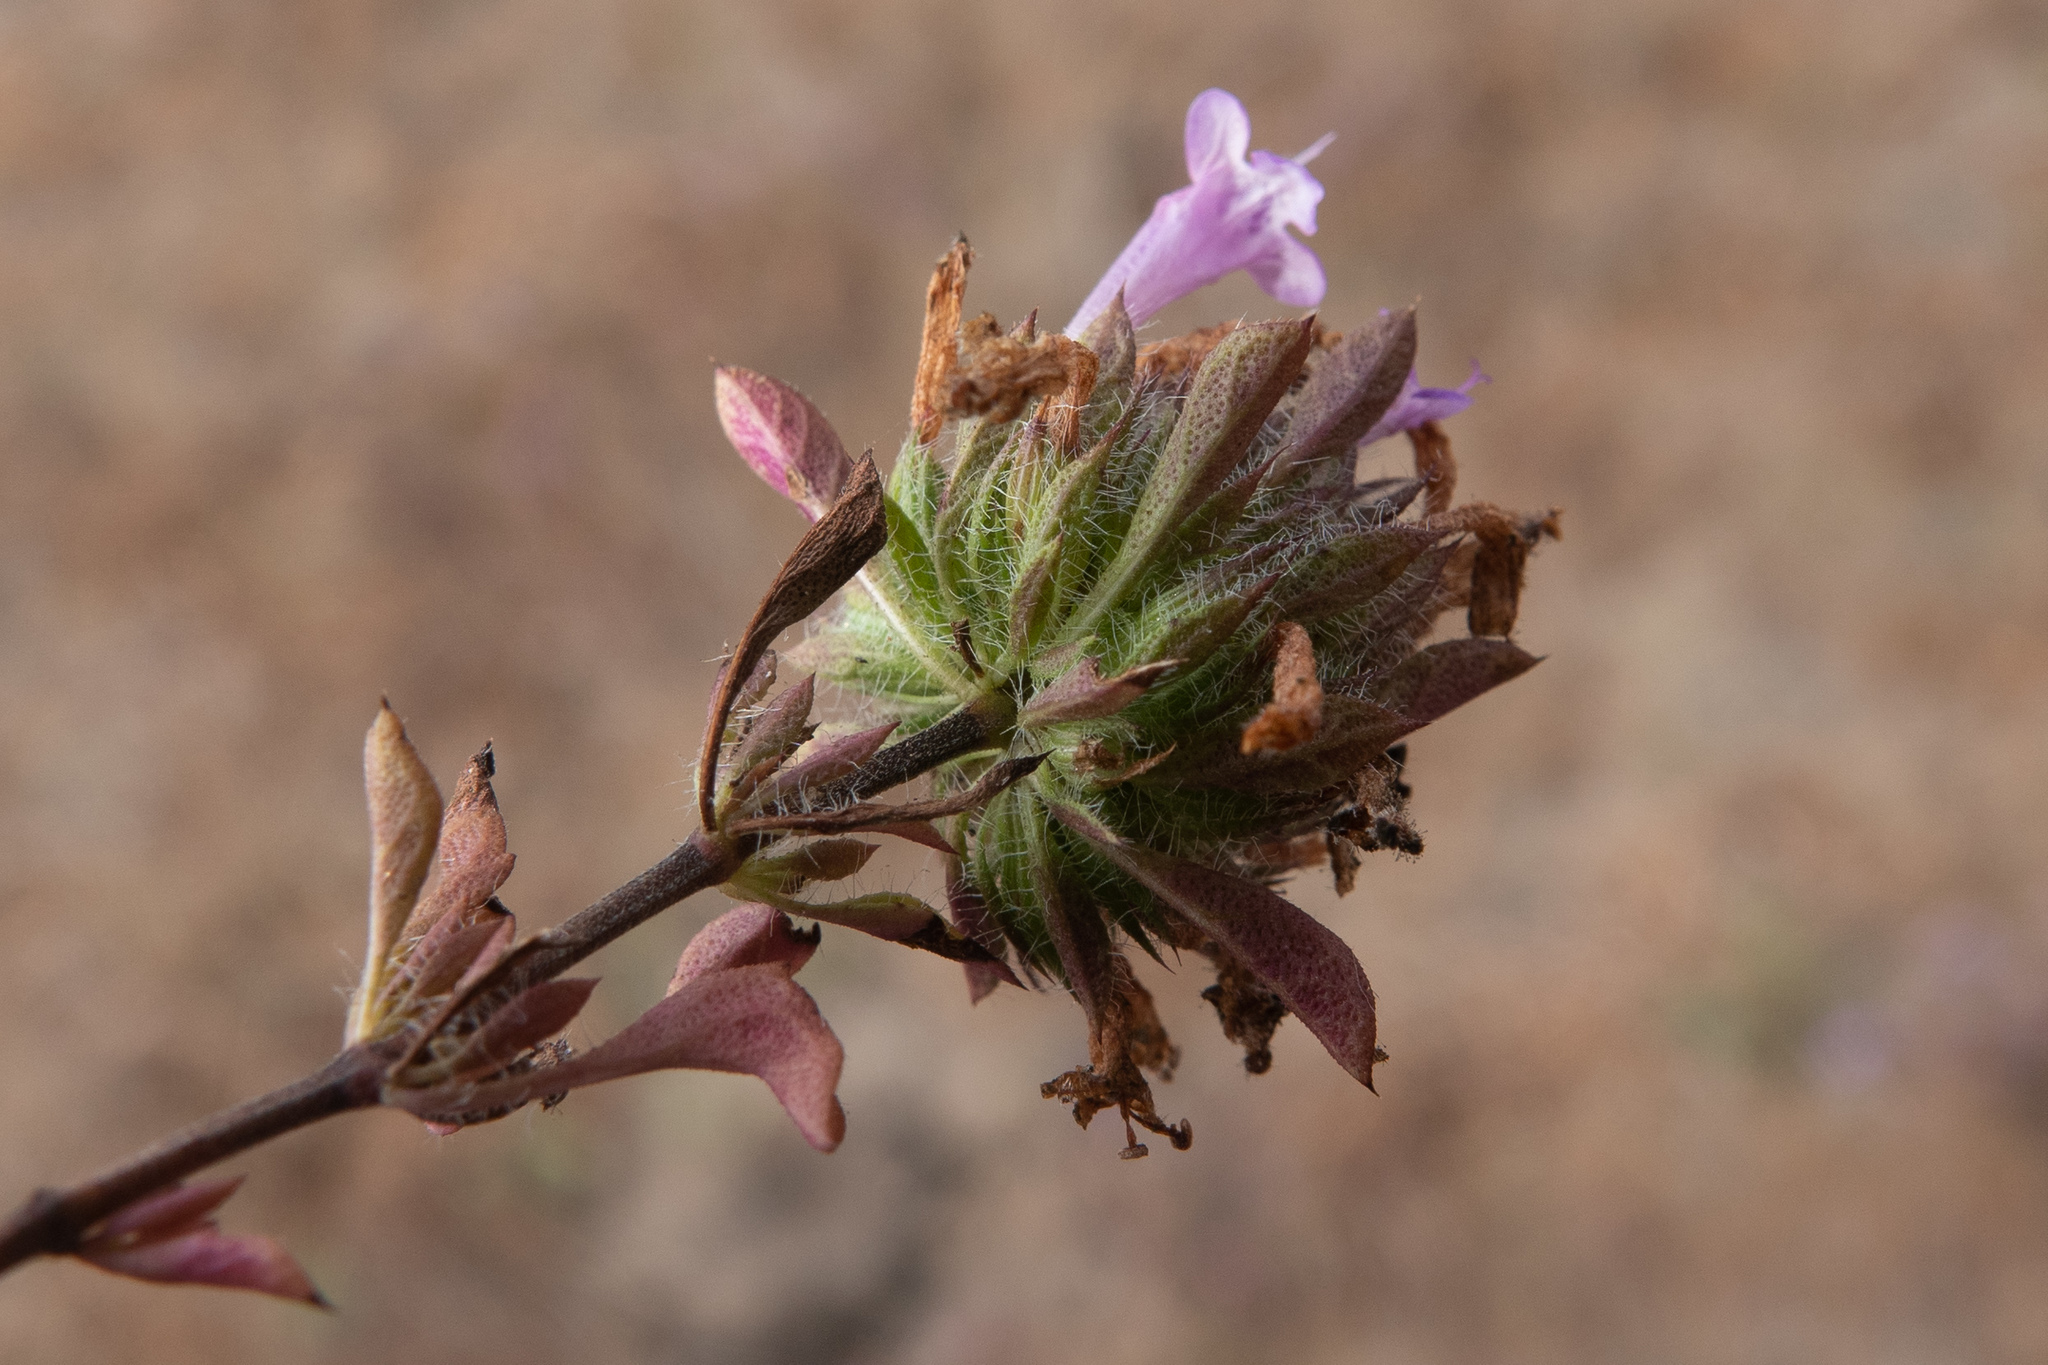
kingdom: Plantae
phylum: Tracheophyta
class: Magnoliopsida
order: Lamiales
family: Lamiaceae
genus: Pogogyne
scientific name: Pogogyne douglasii
